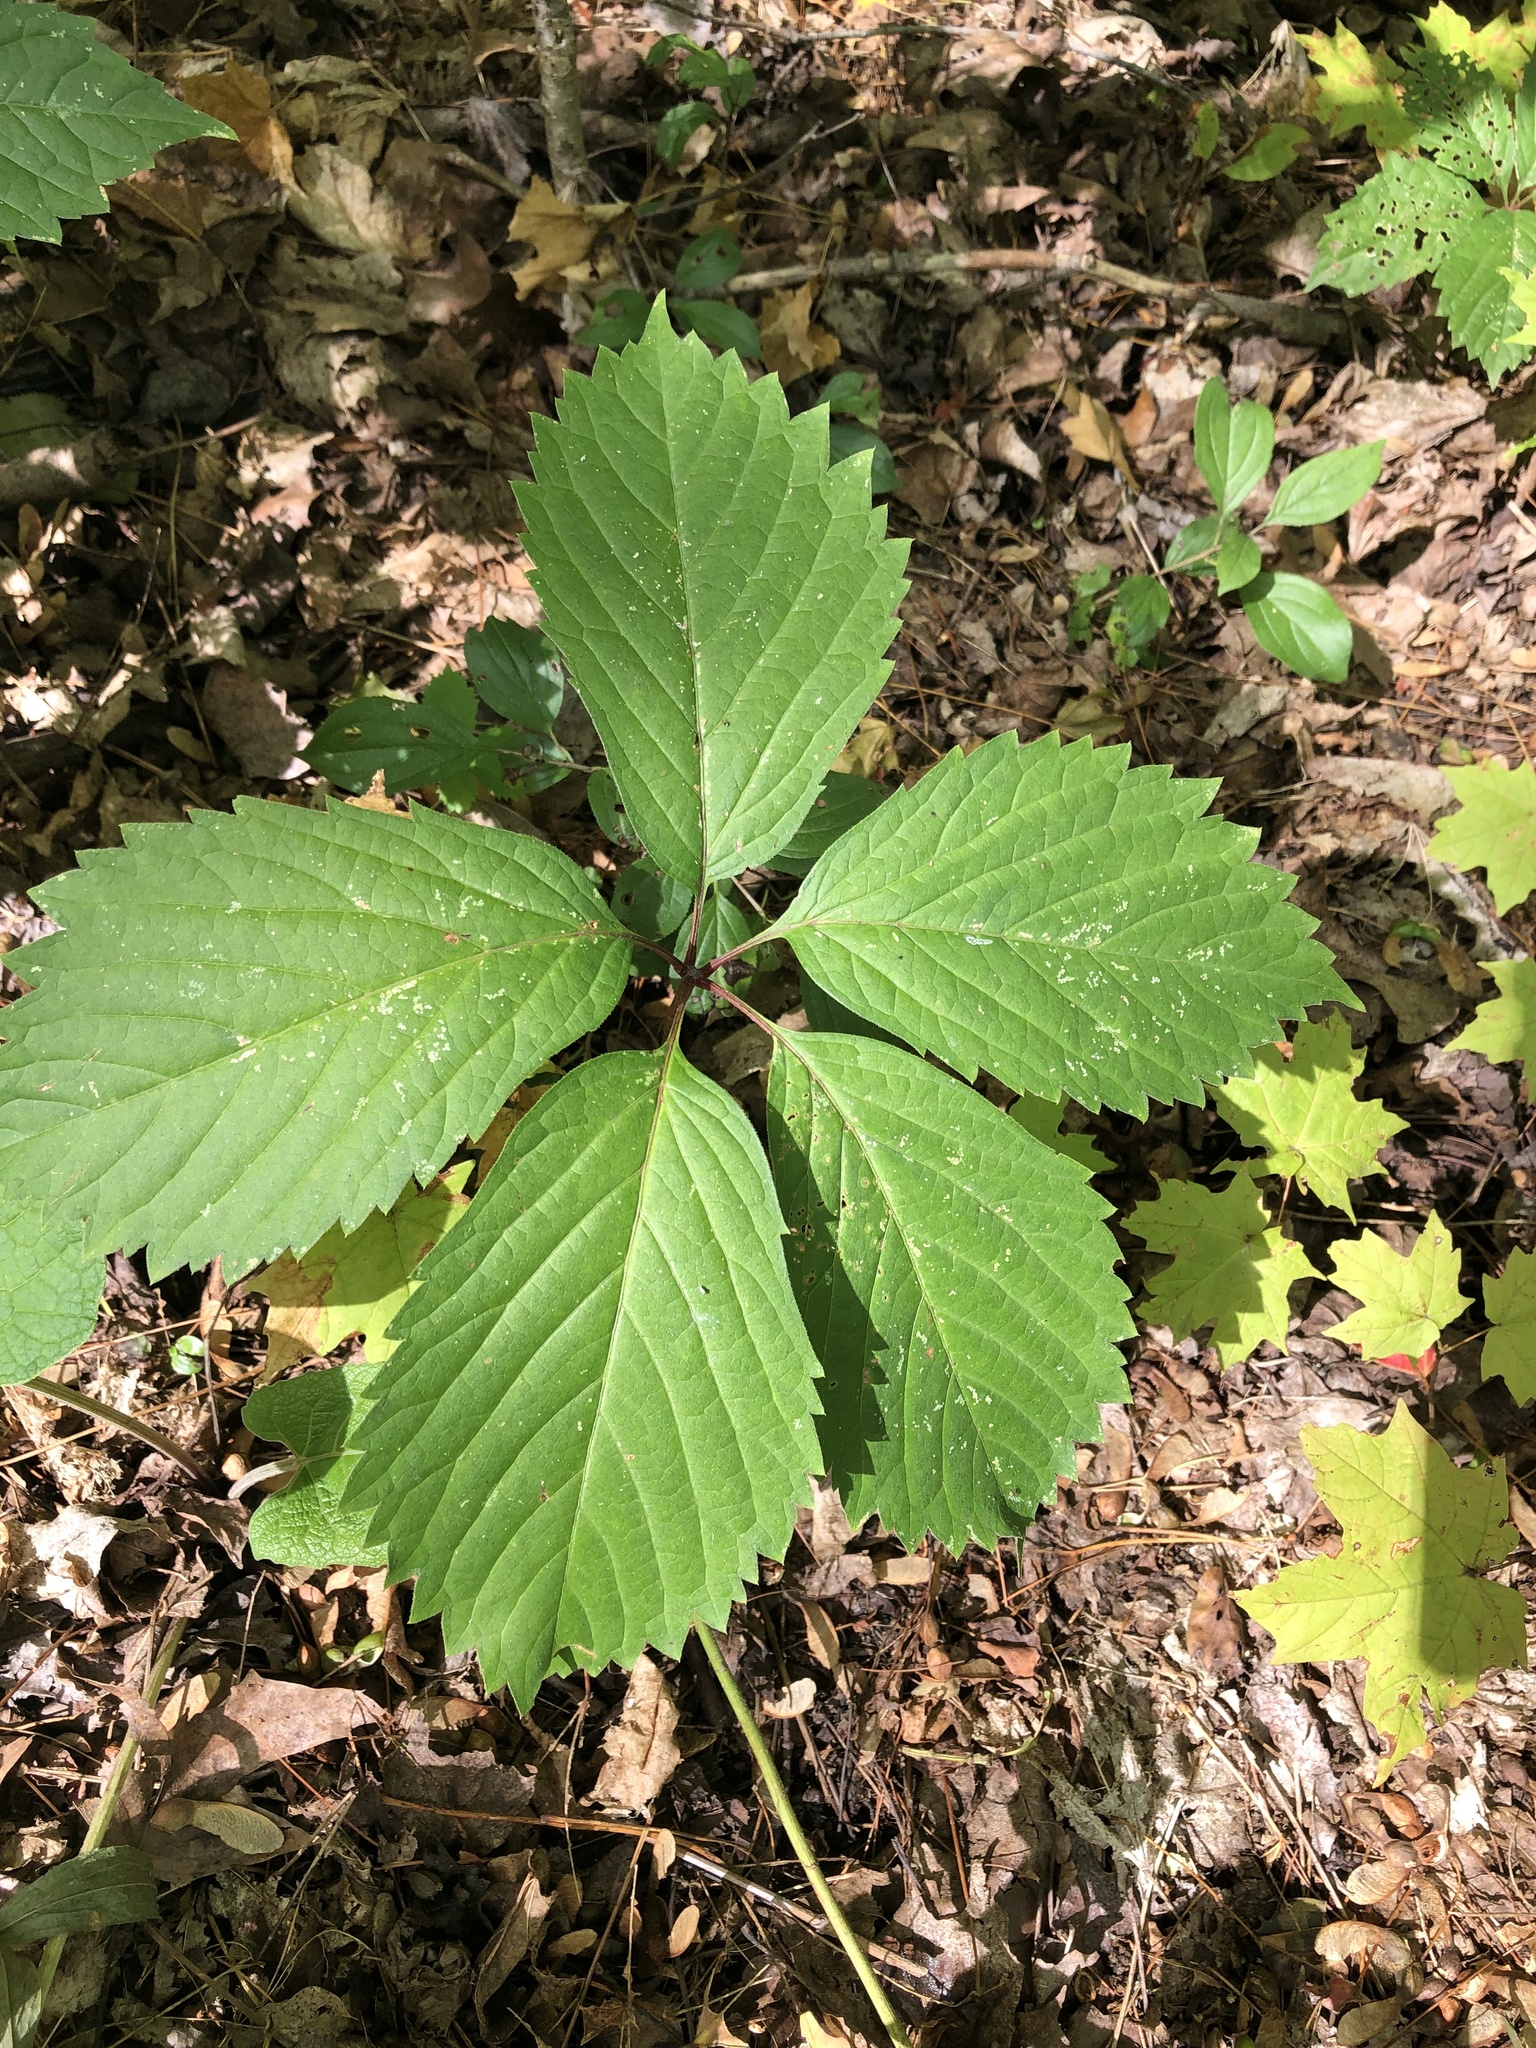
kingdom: Plantae
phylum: Tracheophyta
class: Magnoliopsida
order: Vitales
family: Vitaceae
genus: Parthenocissus
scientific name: Parthenocissus inserta
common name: False virginia-creeper
